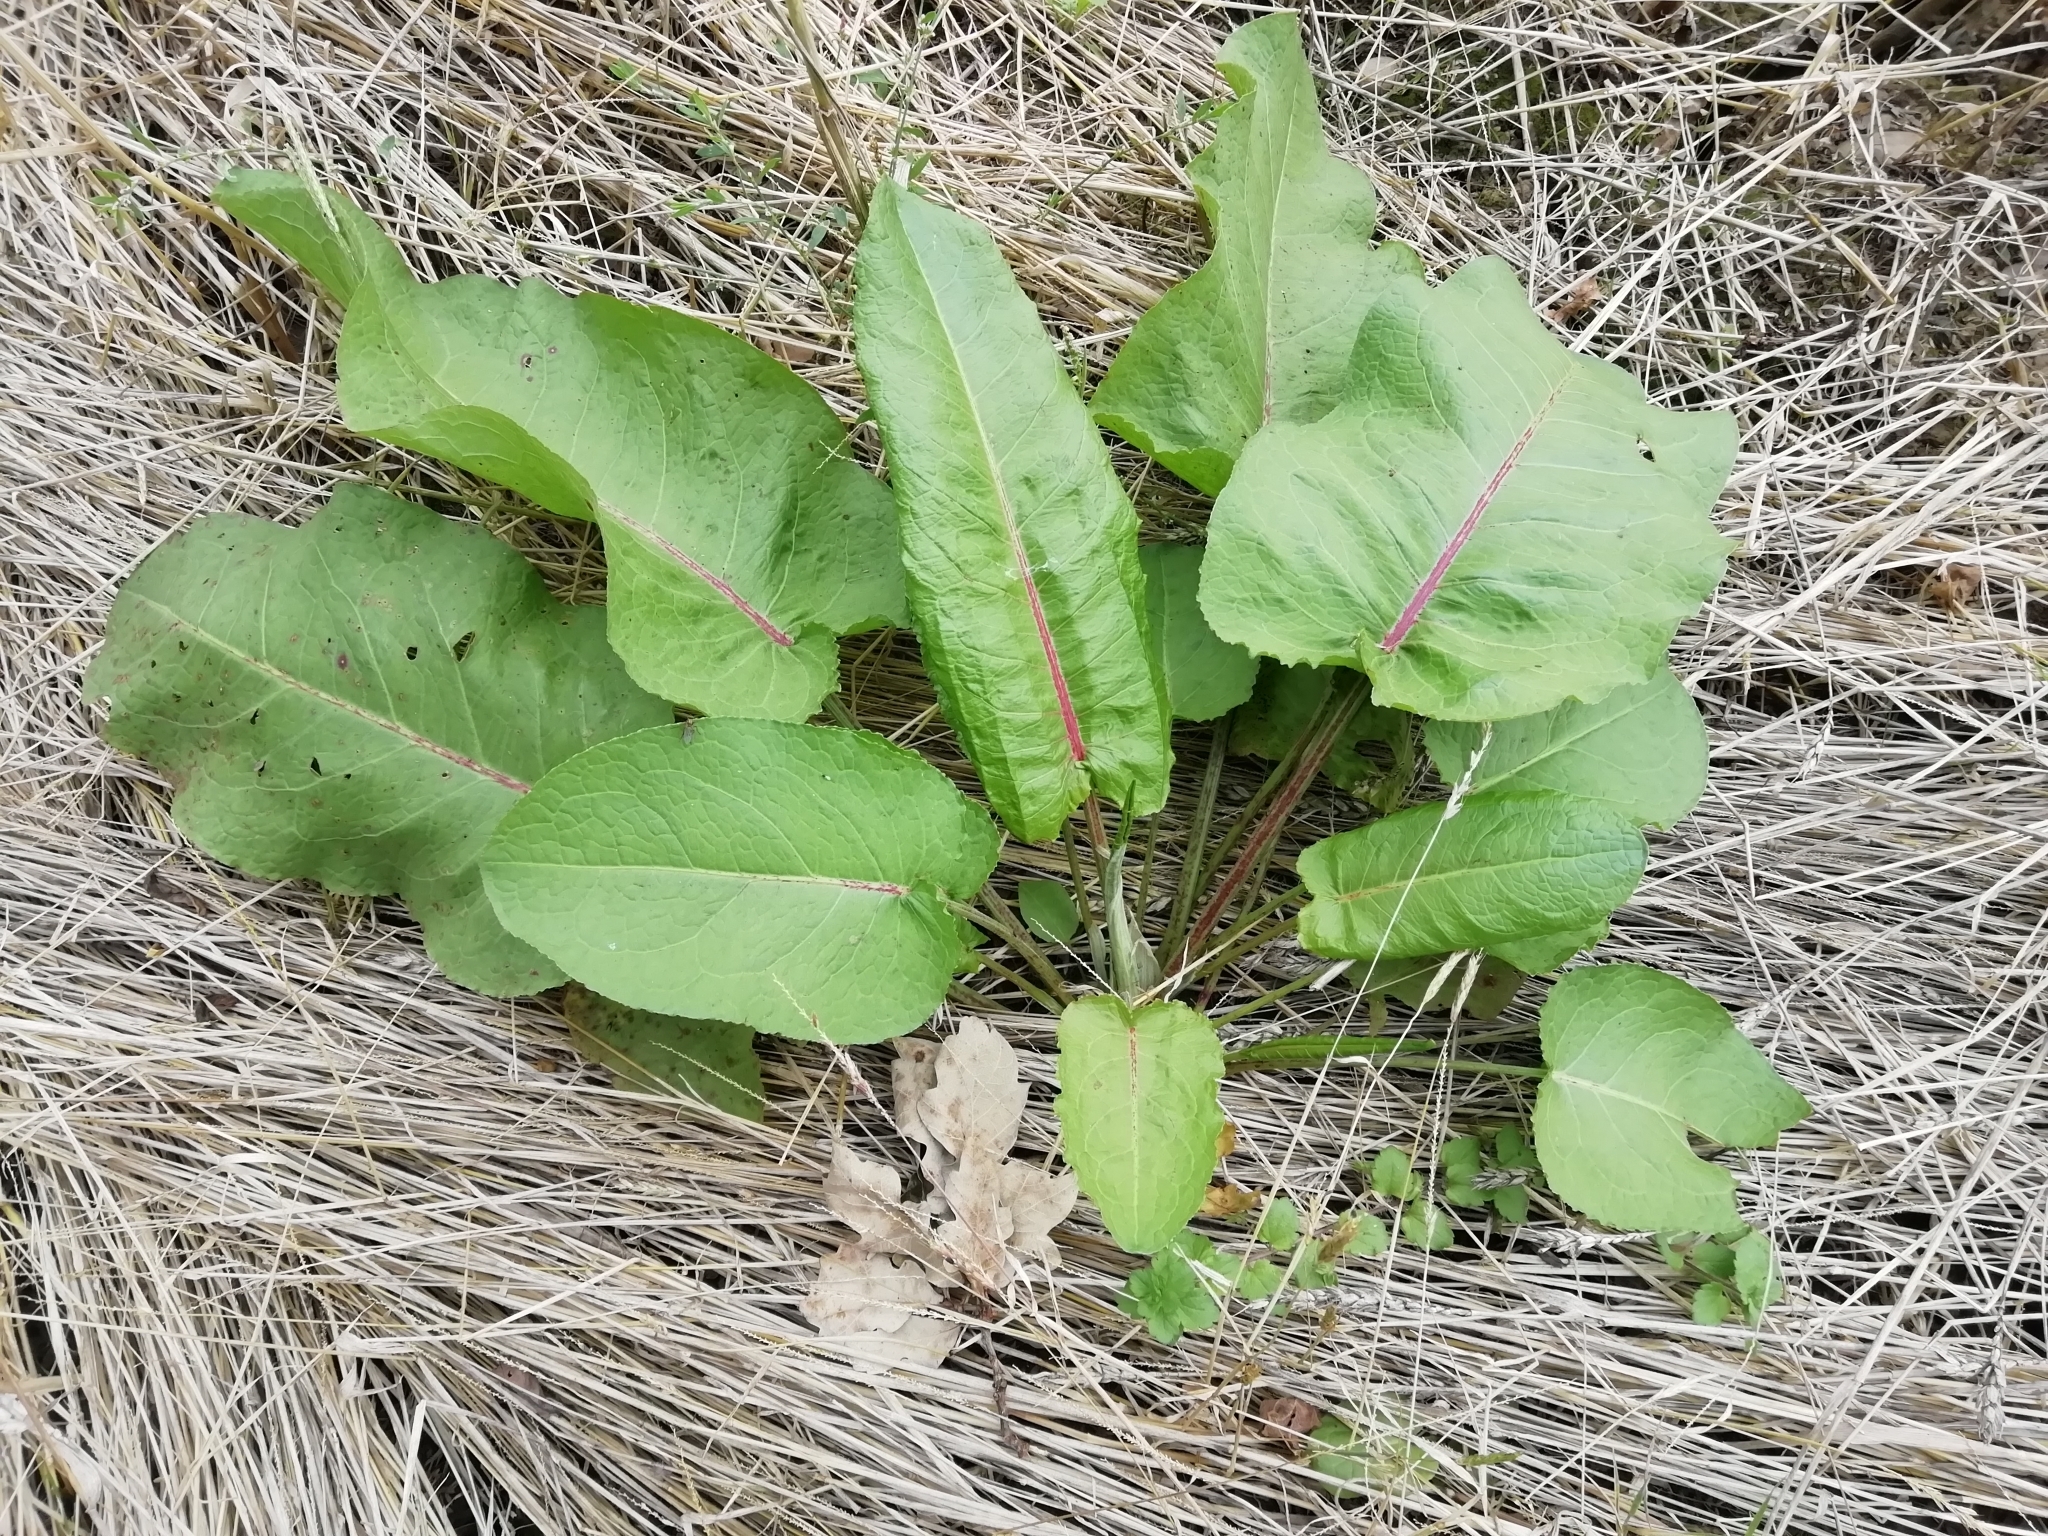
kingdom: Plantae
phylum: Tracheophyta
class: Magnoliopsida
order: Caryophyllales
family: Polygonaceae
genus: Rumex
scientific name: Rumex obtusifolius
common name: Bitter dock
